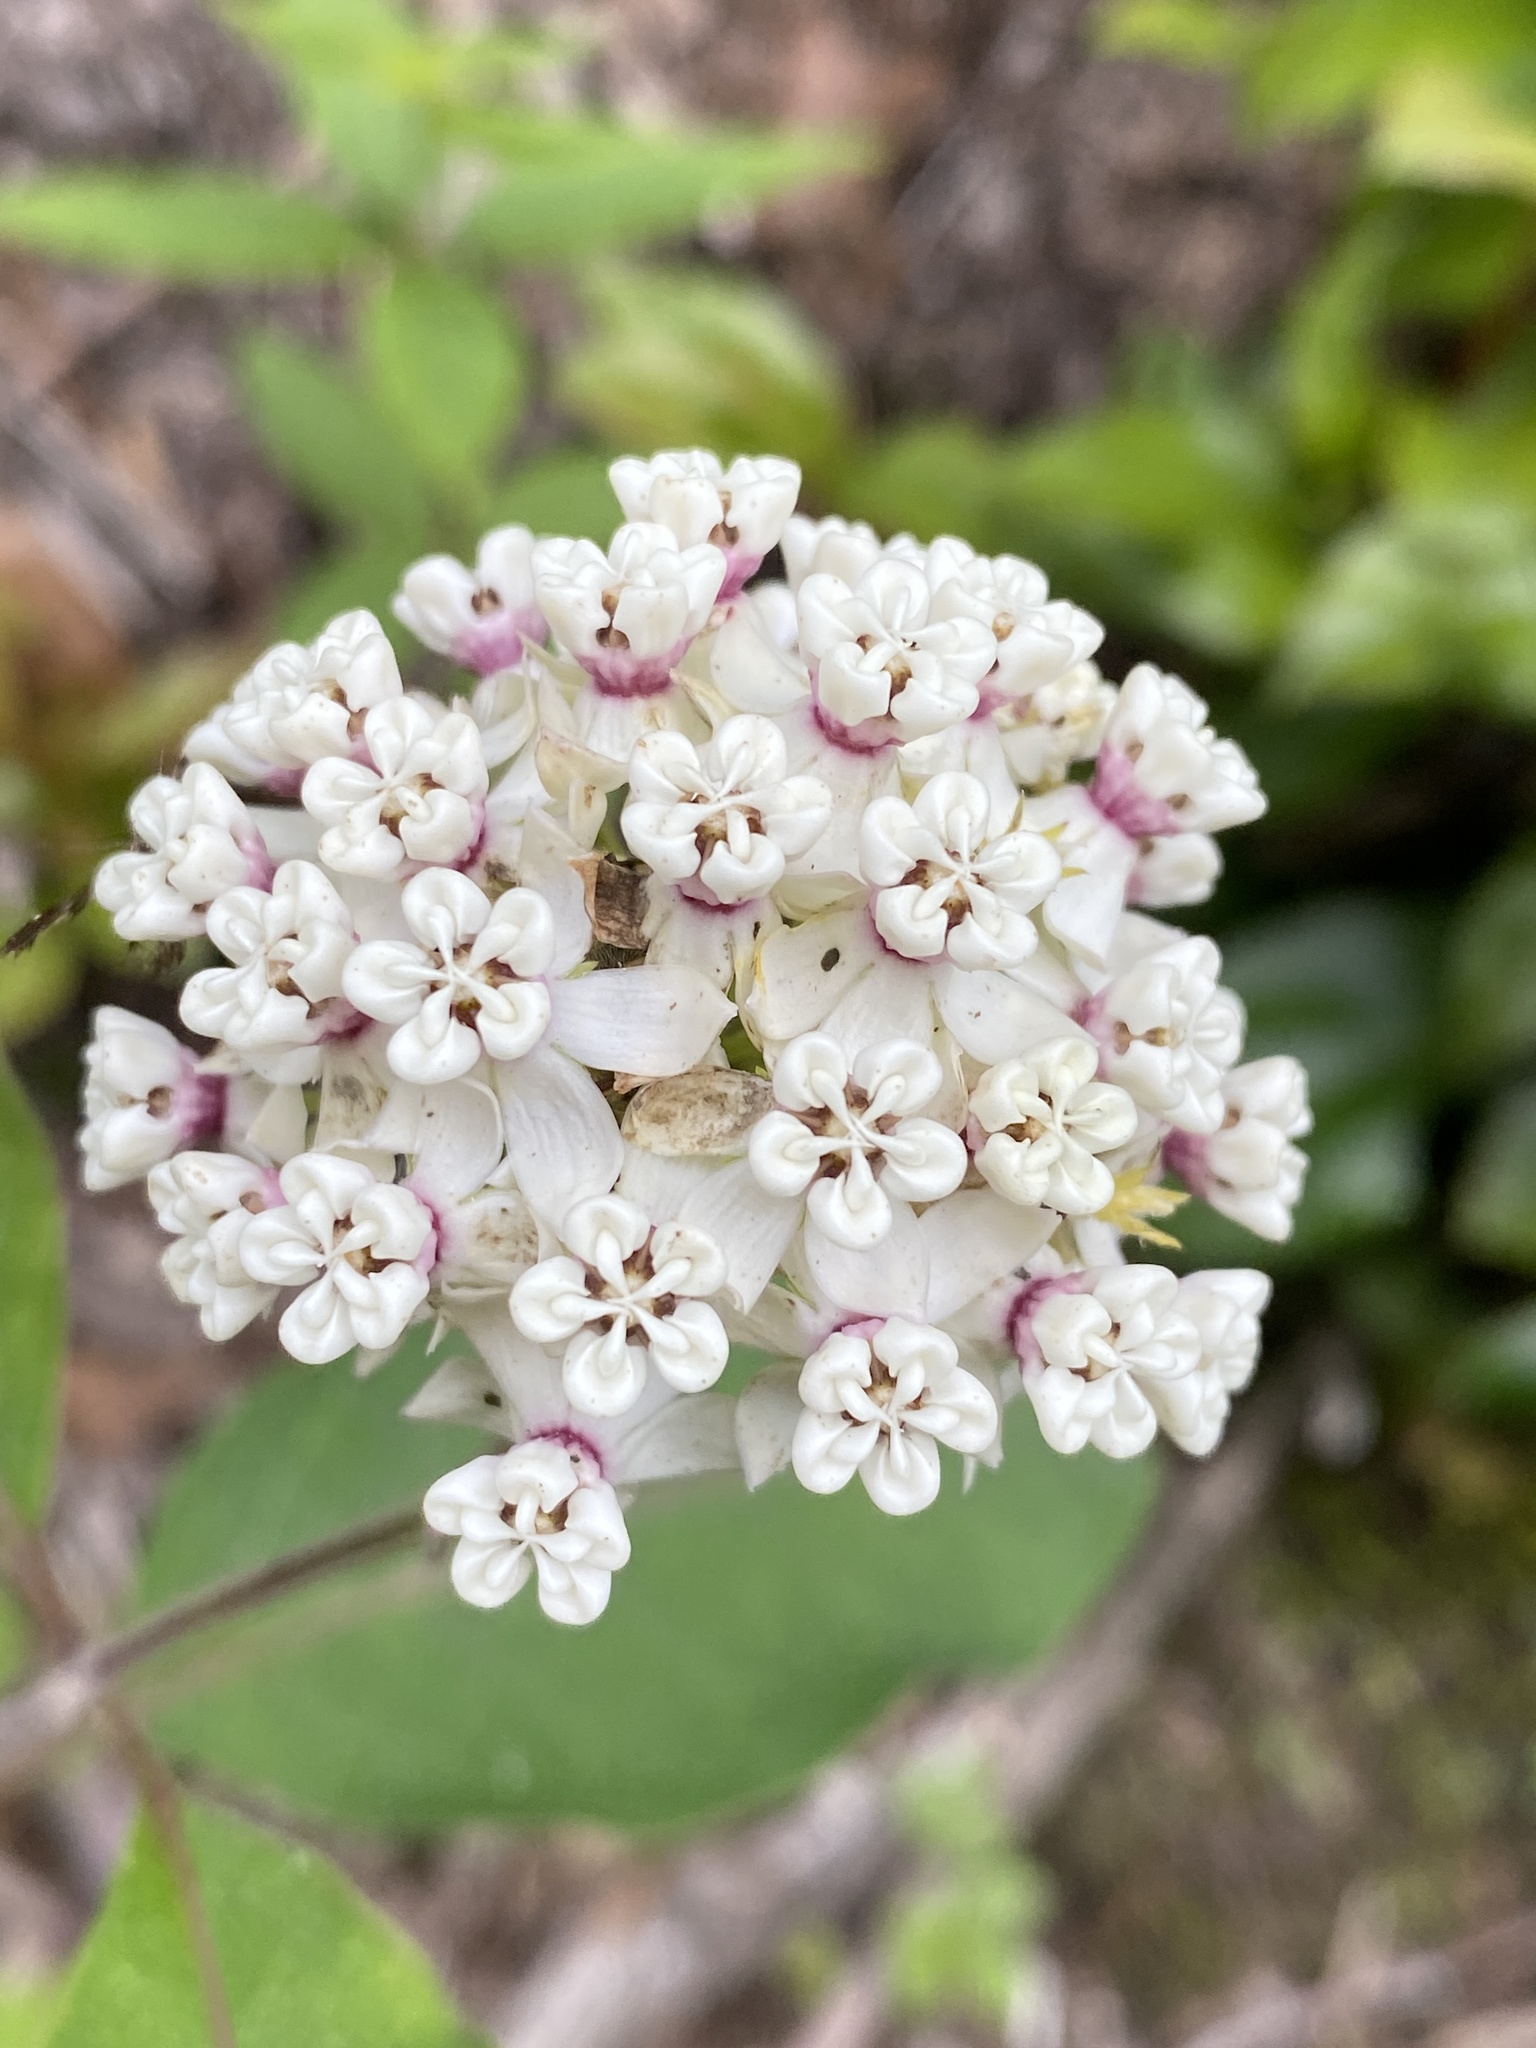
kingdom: Plantae
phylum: Tracheophyta
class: Magnoliopsida
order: Gentianales
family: Apocynaceae
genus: Asclepias
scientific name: Asclepias variegata
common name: Variegated milkweed
